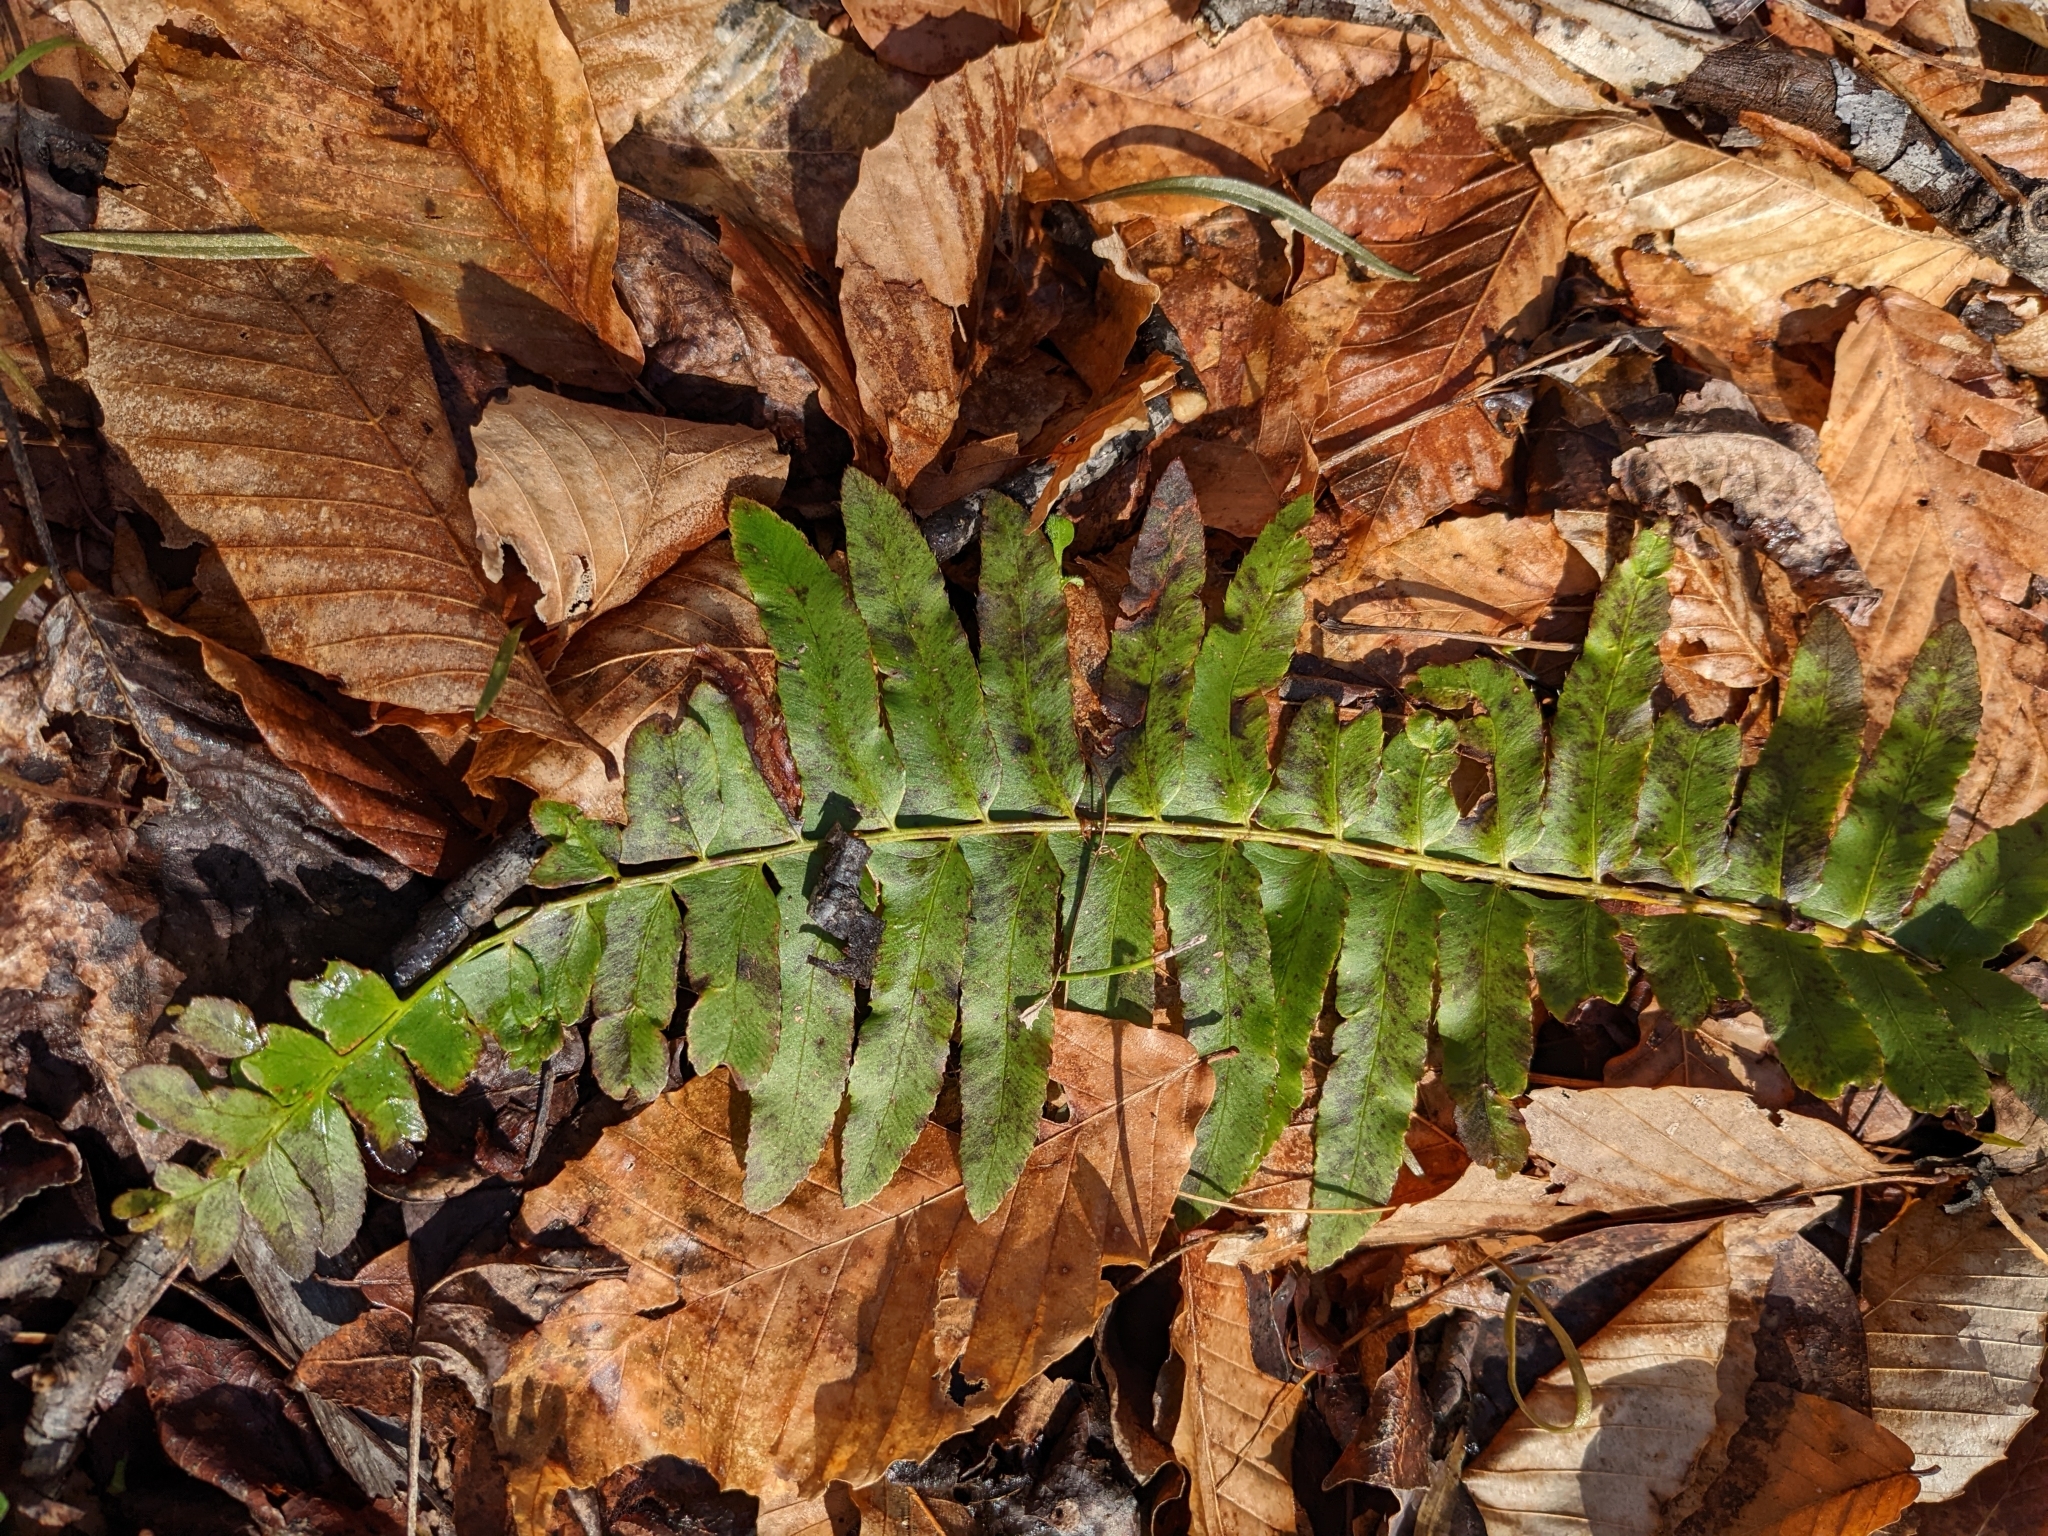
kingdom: Plantae
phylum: Tracheophyta
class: Polypodiopsida
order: Polypodiales
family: Dryopteridaceae
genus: Polystichum
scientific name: Polystichum acrostichoides
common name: Christmas fern
